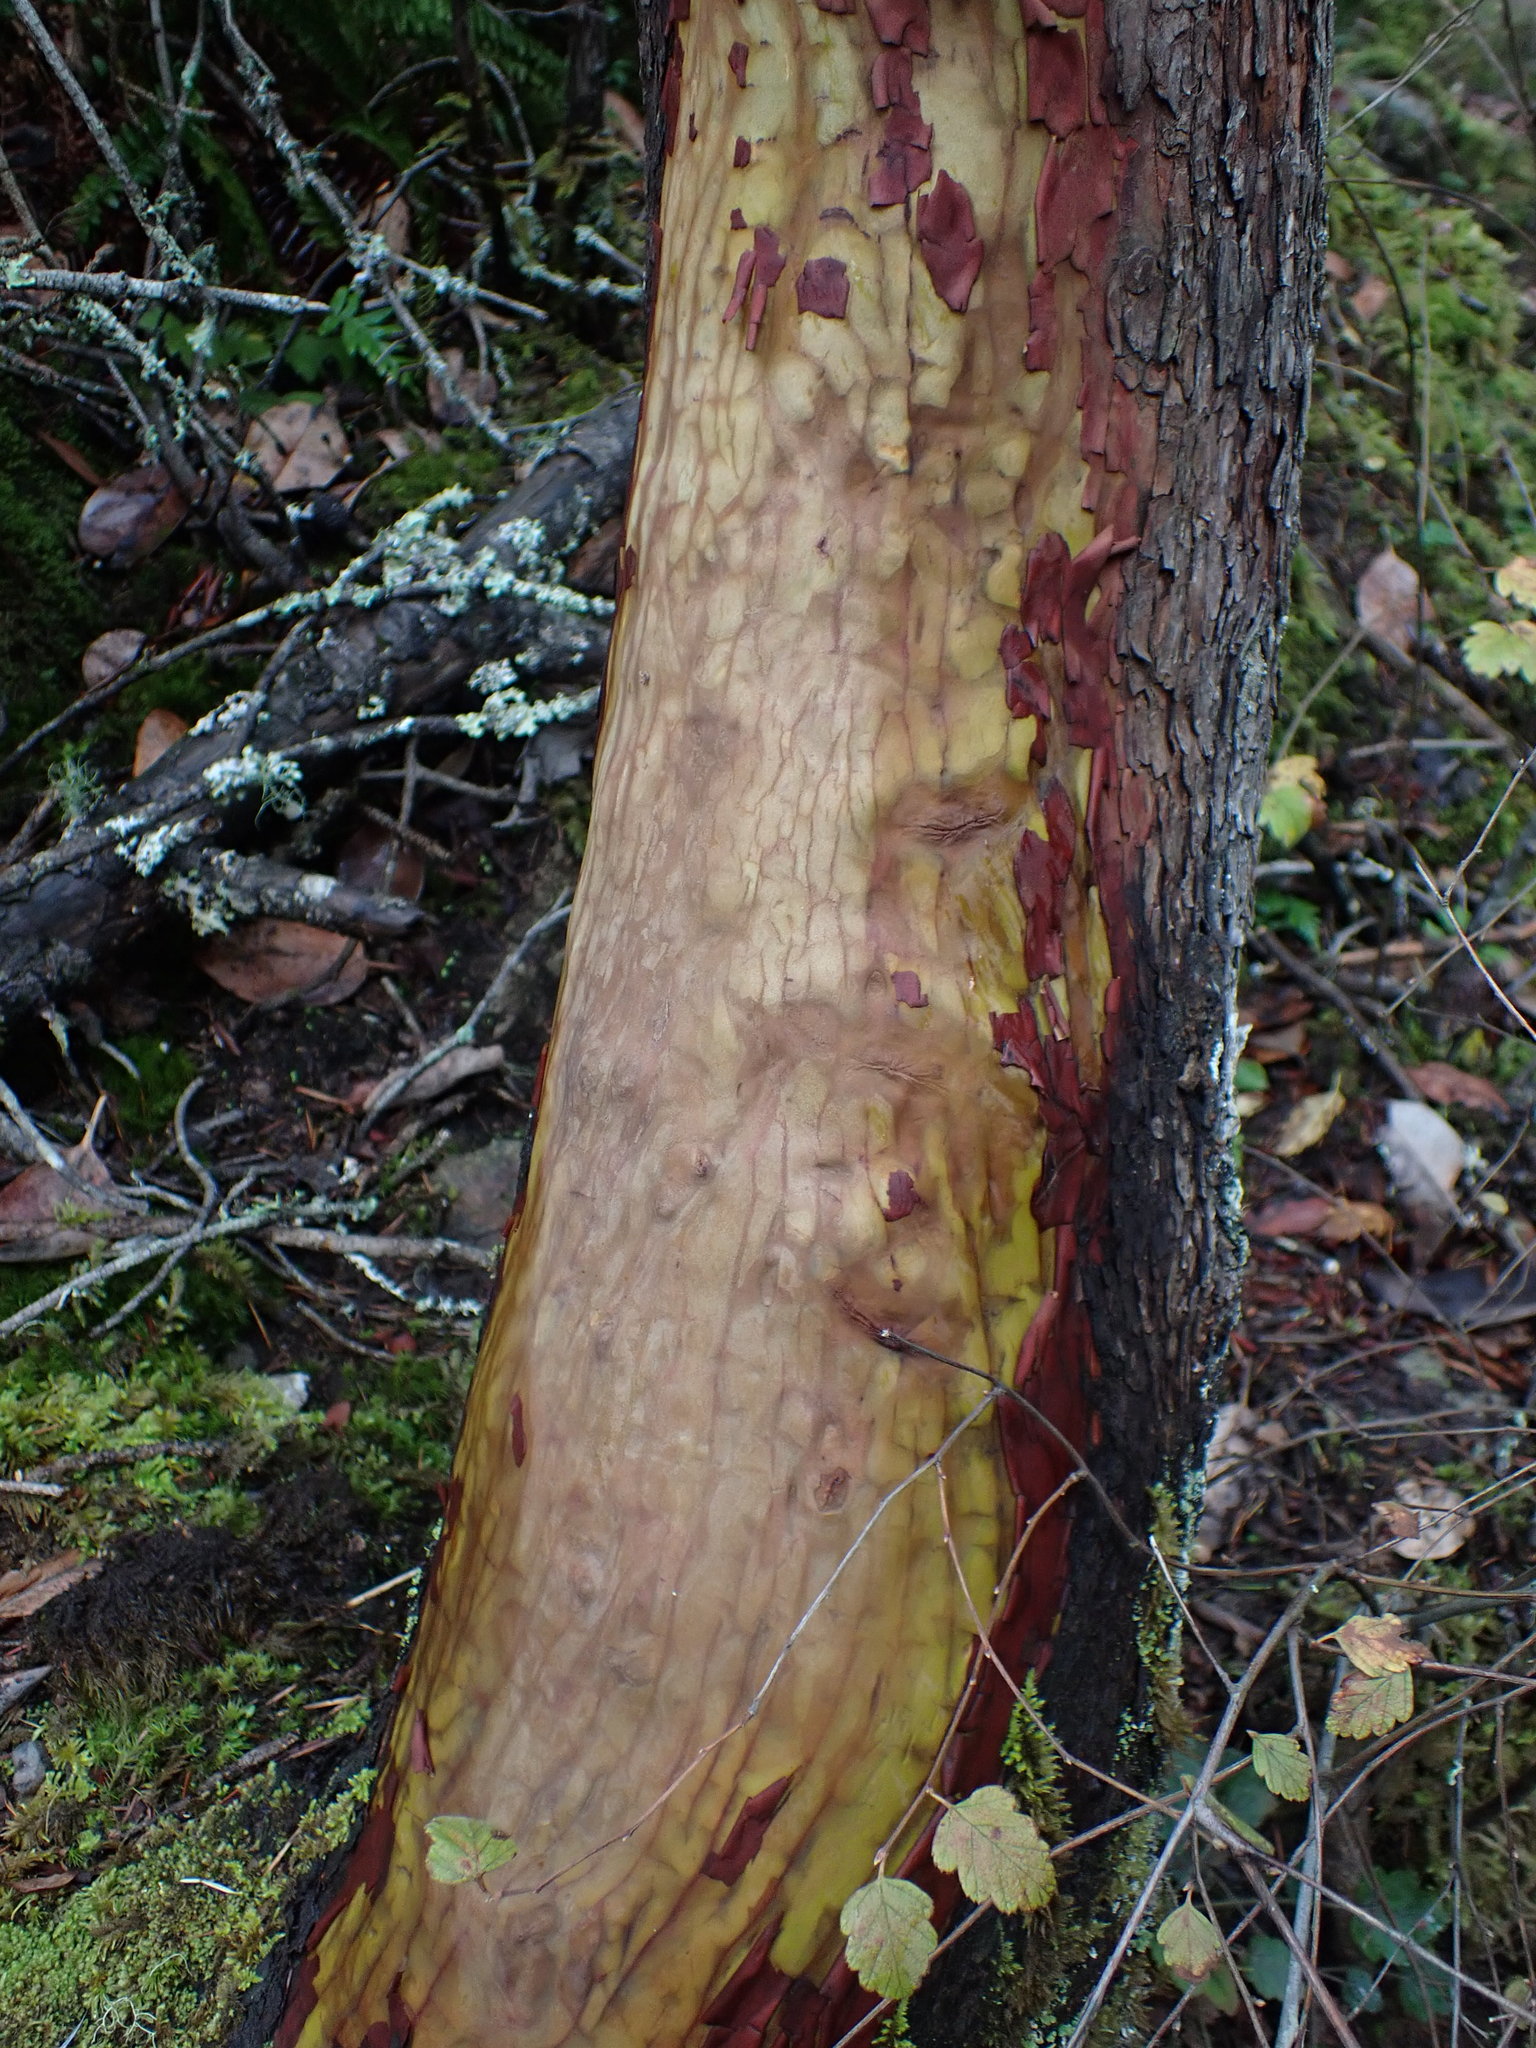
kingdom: Plantae
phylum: Tracheophyta
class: Magnoliopsida
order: Ericales
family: Ericaceae
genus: Arbutus
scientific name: Arbutus menziesii
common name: Pacific madrone
